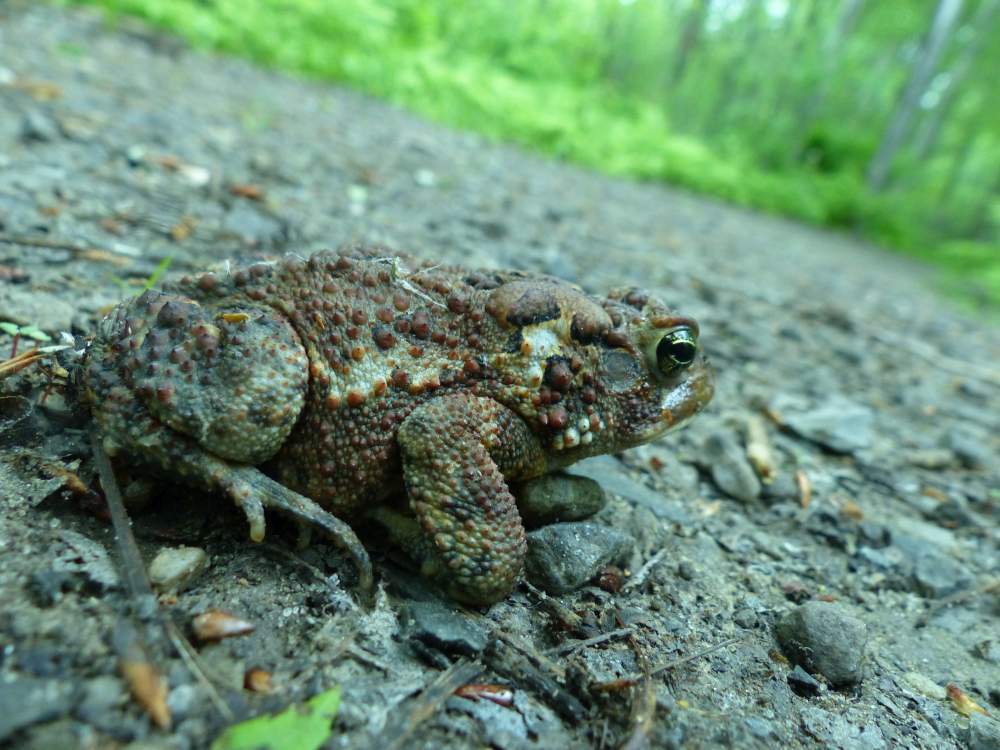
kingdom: Animalia
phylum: Chordata
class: Amphibia
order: Anura
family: Bufonidae
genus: Anaxyrus
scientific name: Anaxyrus americanus
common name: American toad
